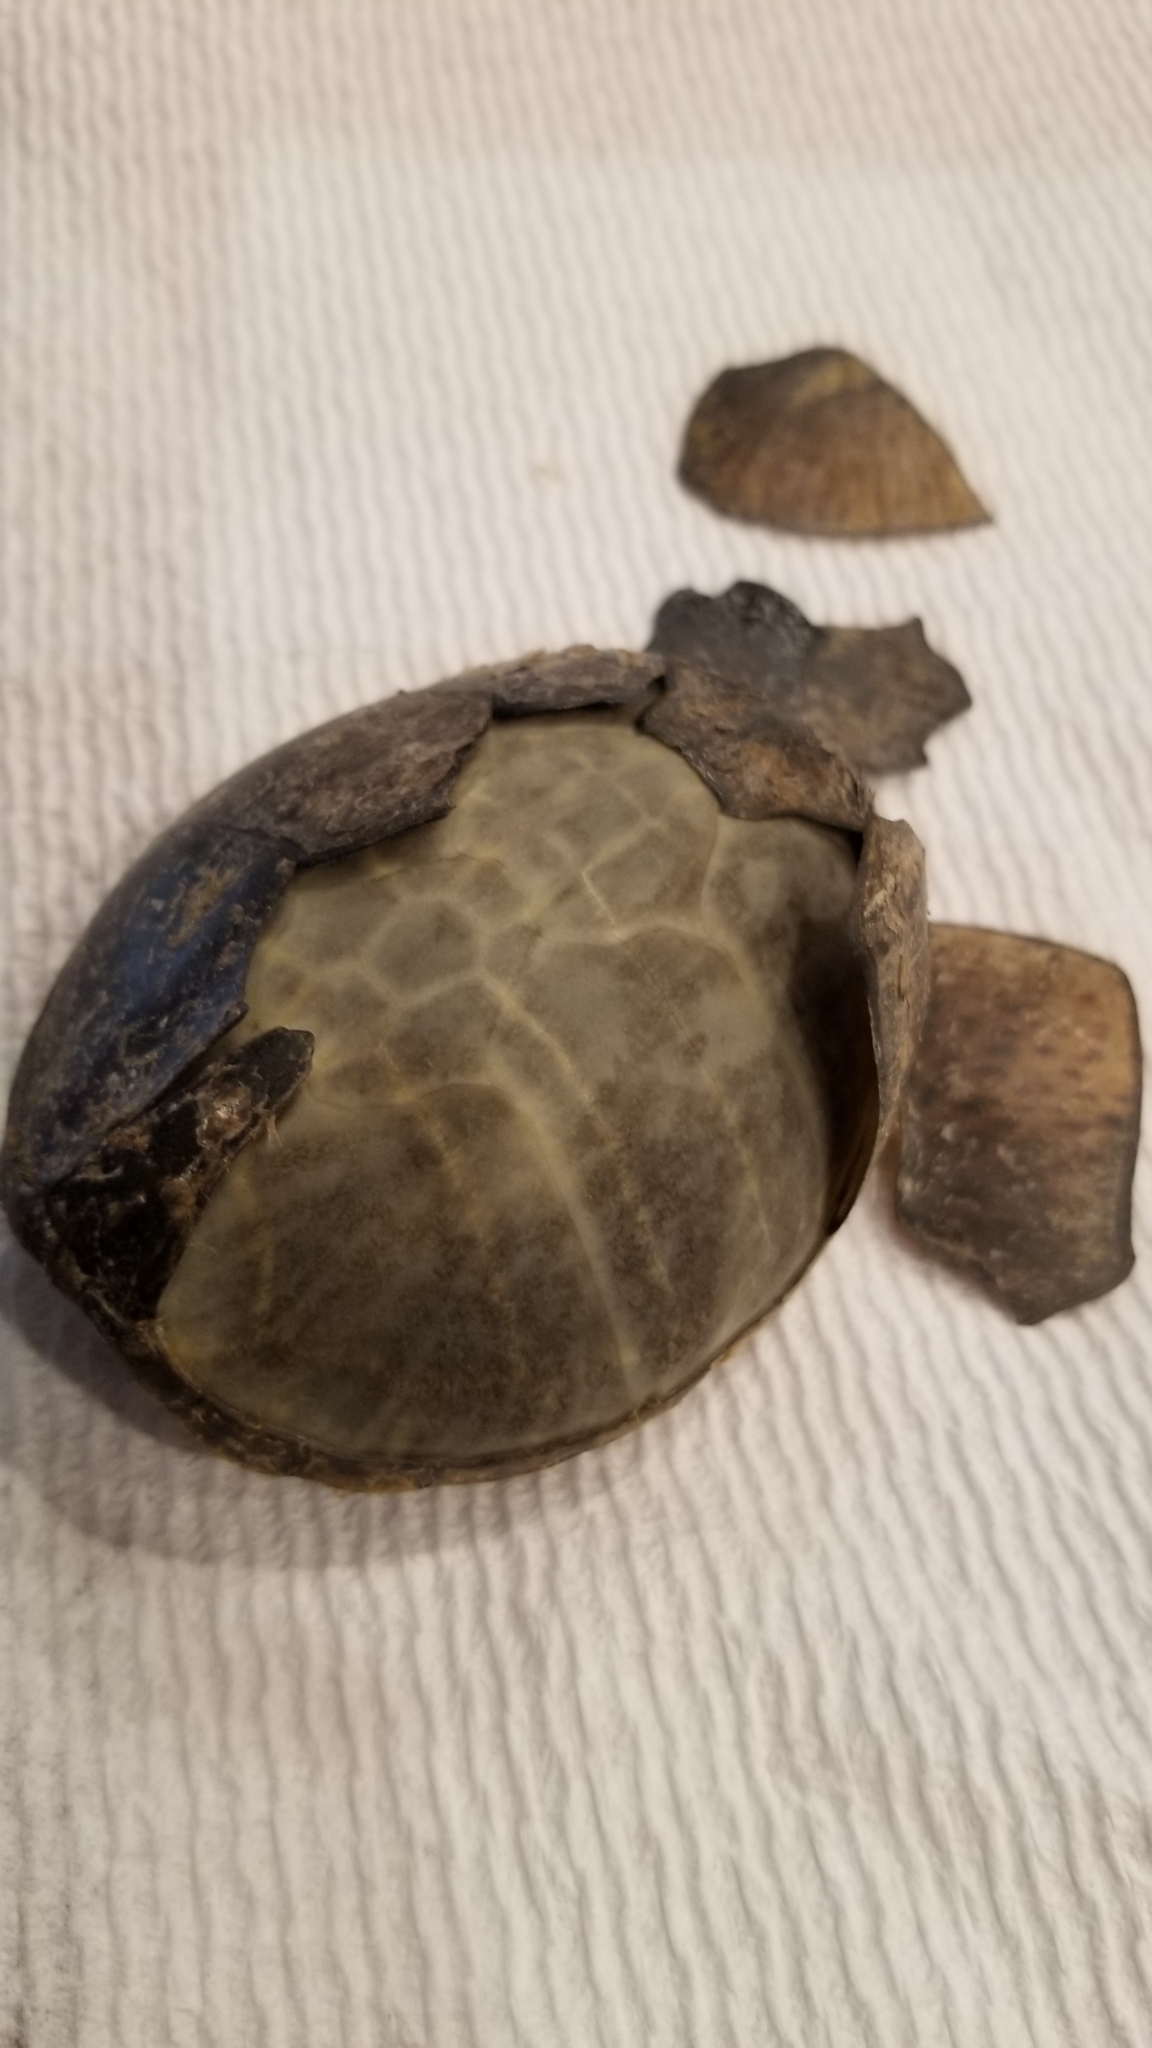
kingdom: Animalia
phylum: Chordata
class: Testudines
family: Kinosternidae
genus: Sternotherus
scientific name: Sternotherus odoratus
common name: Common musk turtle
